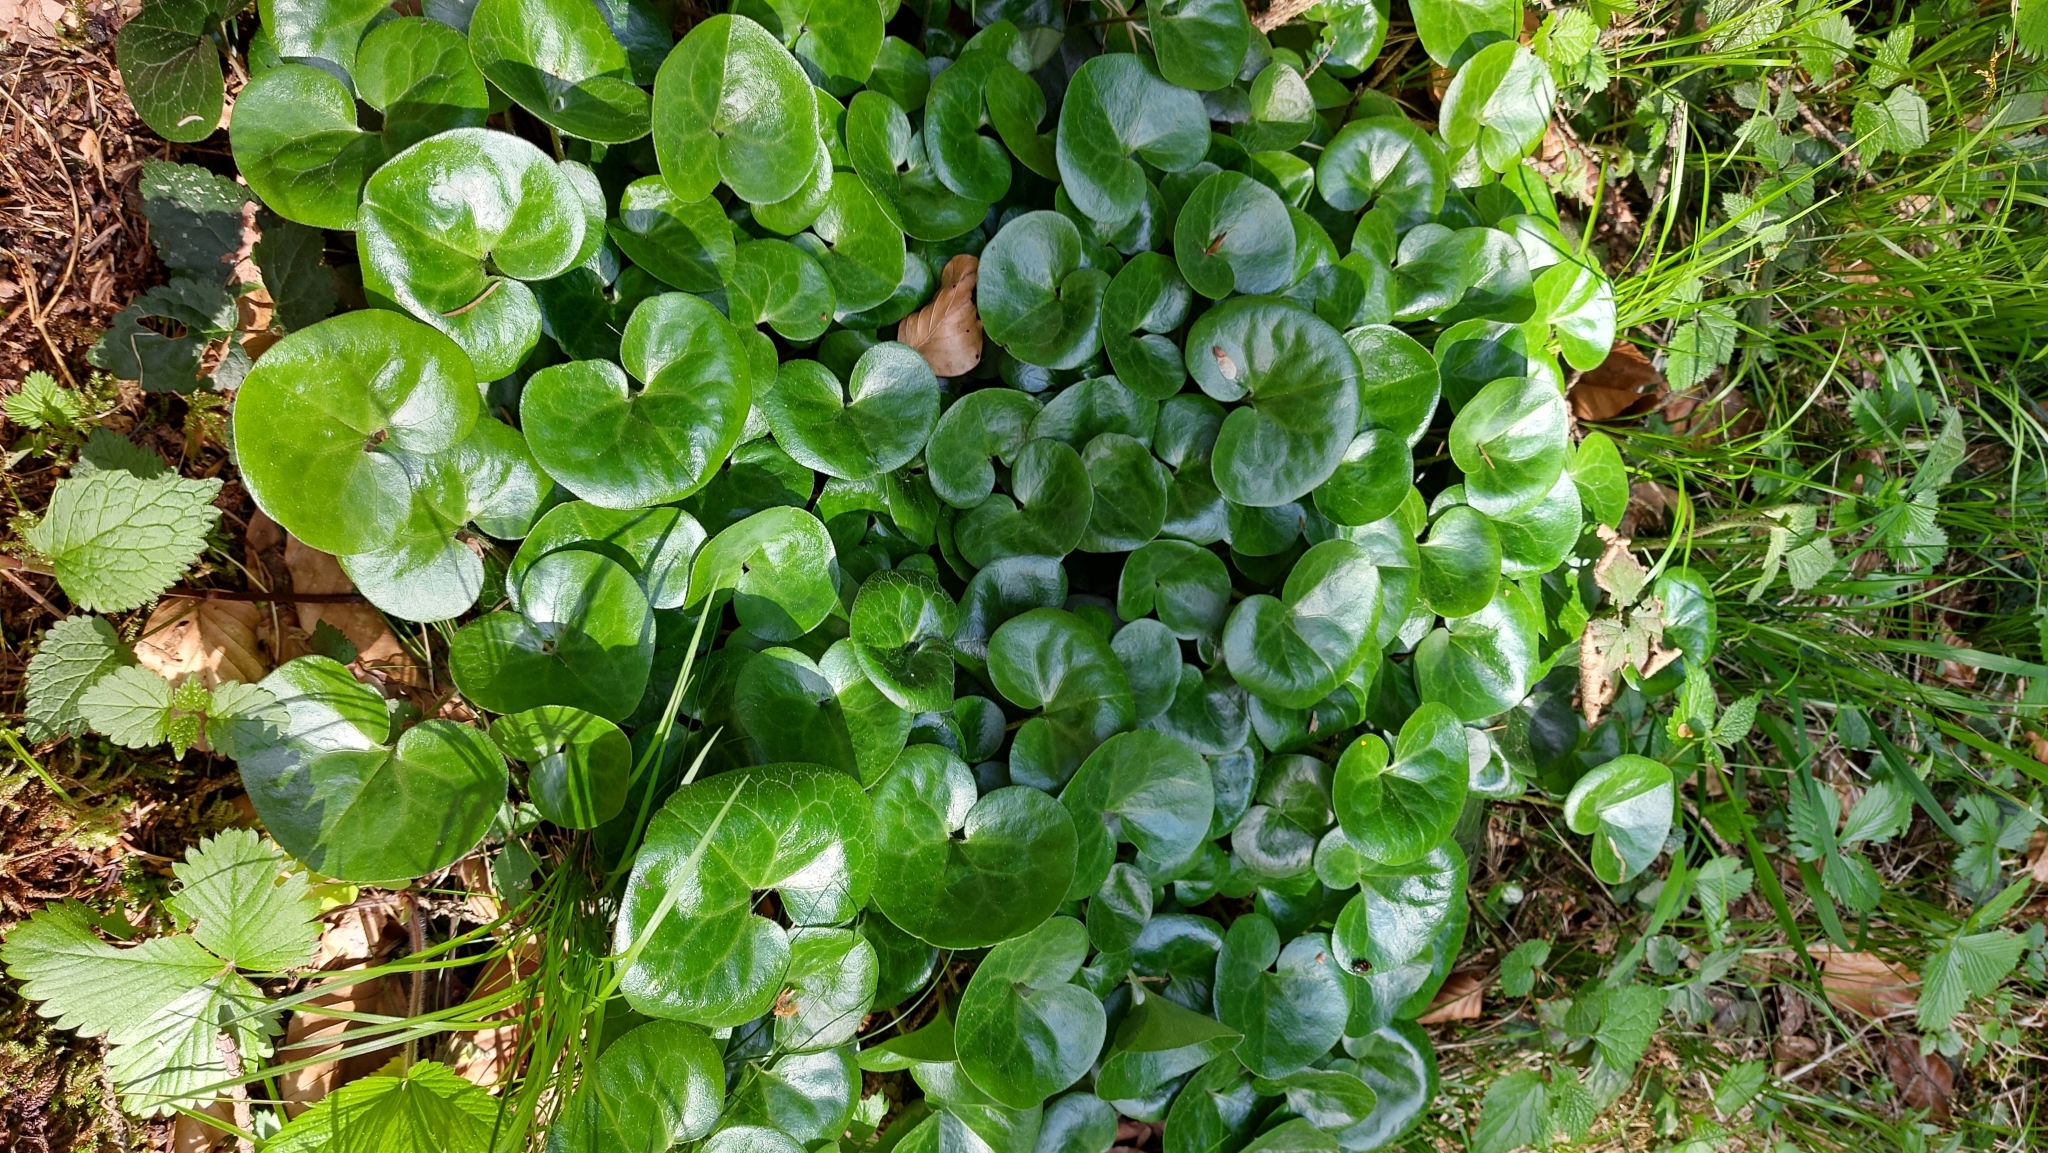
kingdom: Plantae
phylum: Tracheophyta
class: Magnoliopsida
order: Piperales
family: Aristolochiaceae
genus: Asarum
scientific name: Asarum europaeum
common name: Asarabacca
